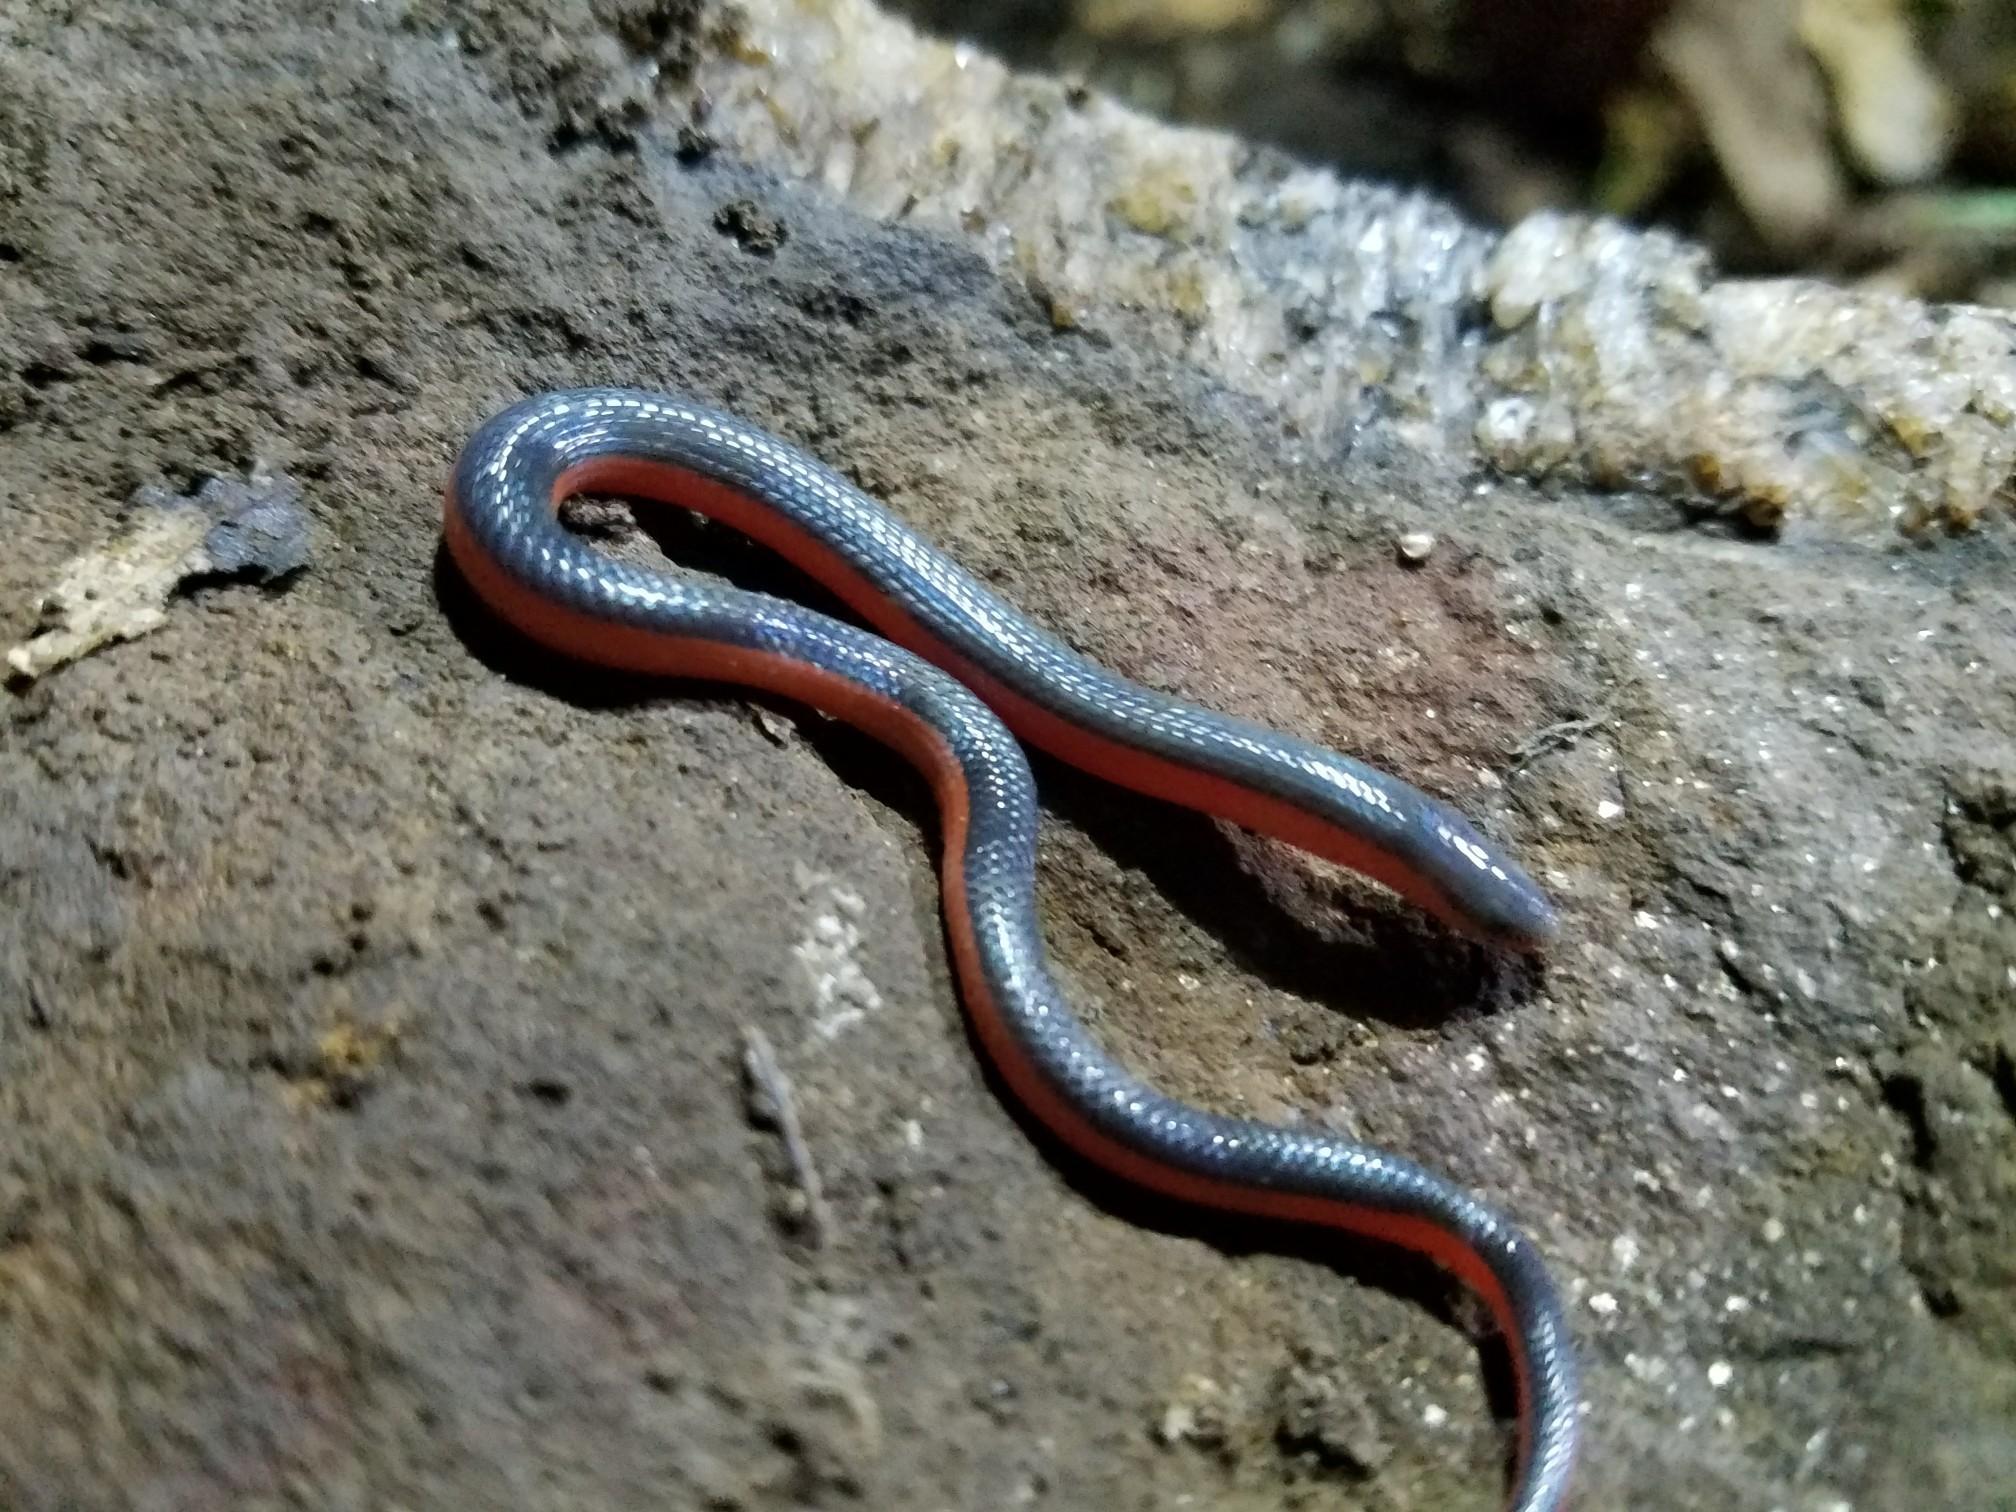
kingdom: Animalia
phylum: Chordata
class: Squamata
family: Colubridae
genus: Carphophis
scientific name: Carphophis vermis
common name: Western worm snake
